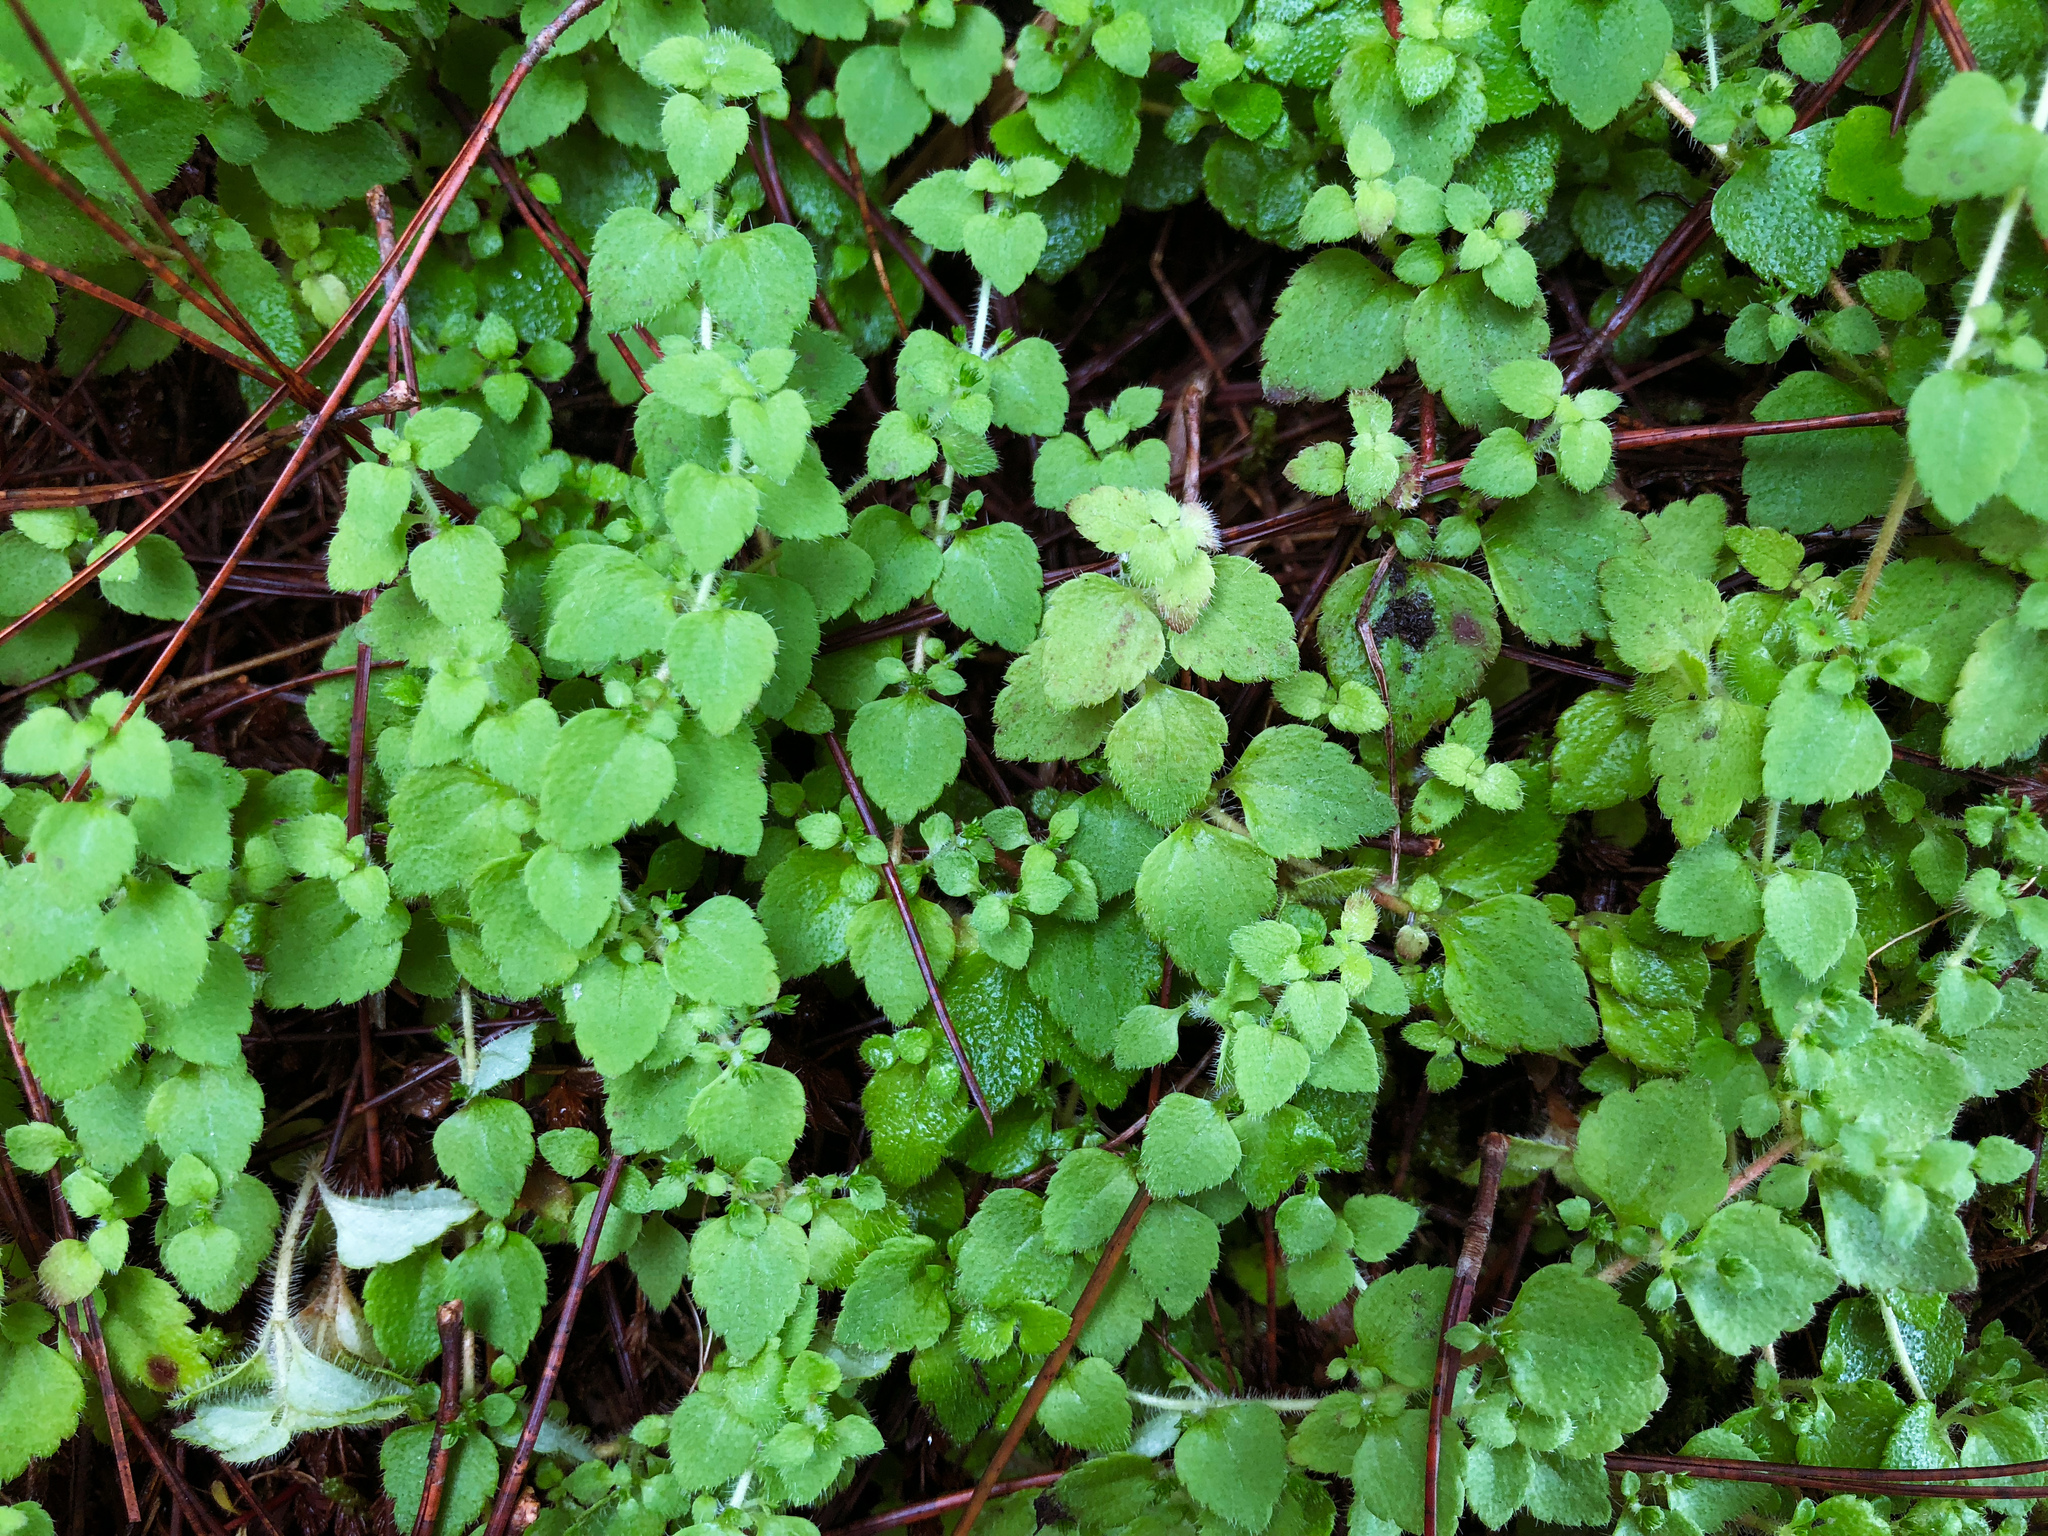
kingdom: Plantae
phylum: Tracheophyta
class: Magnoliopsida
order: Lamiales
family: Plantaginaceae
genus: Hemiphragma
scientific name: Hemiphragma heterophyllum
